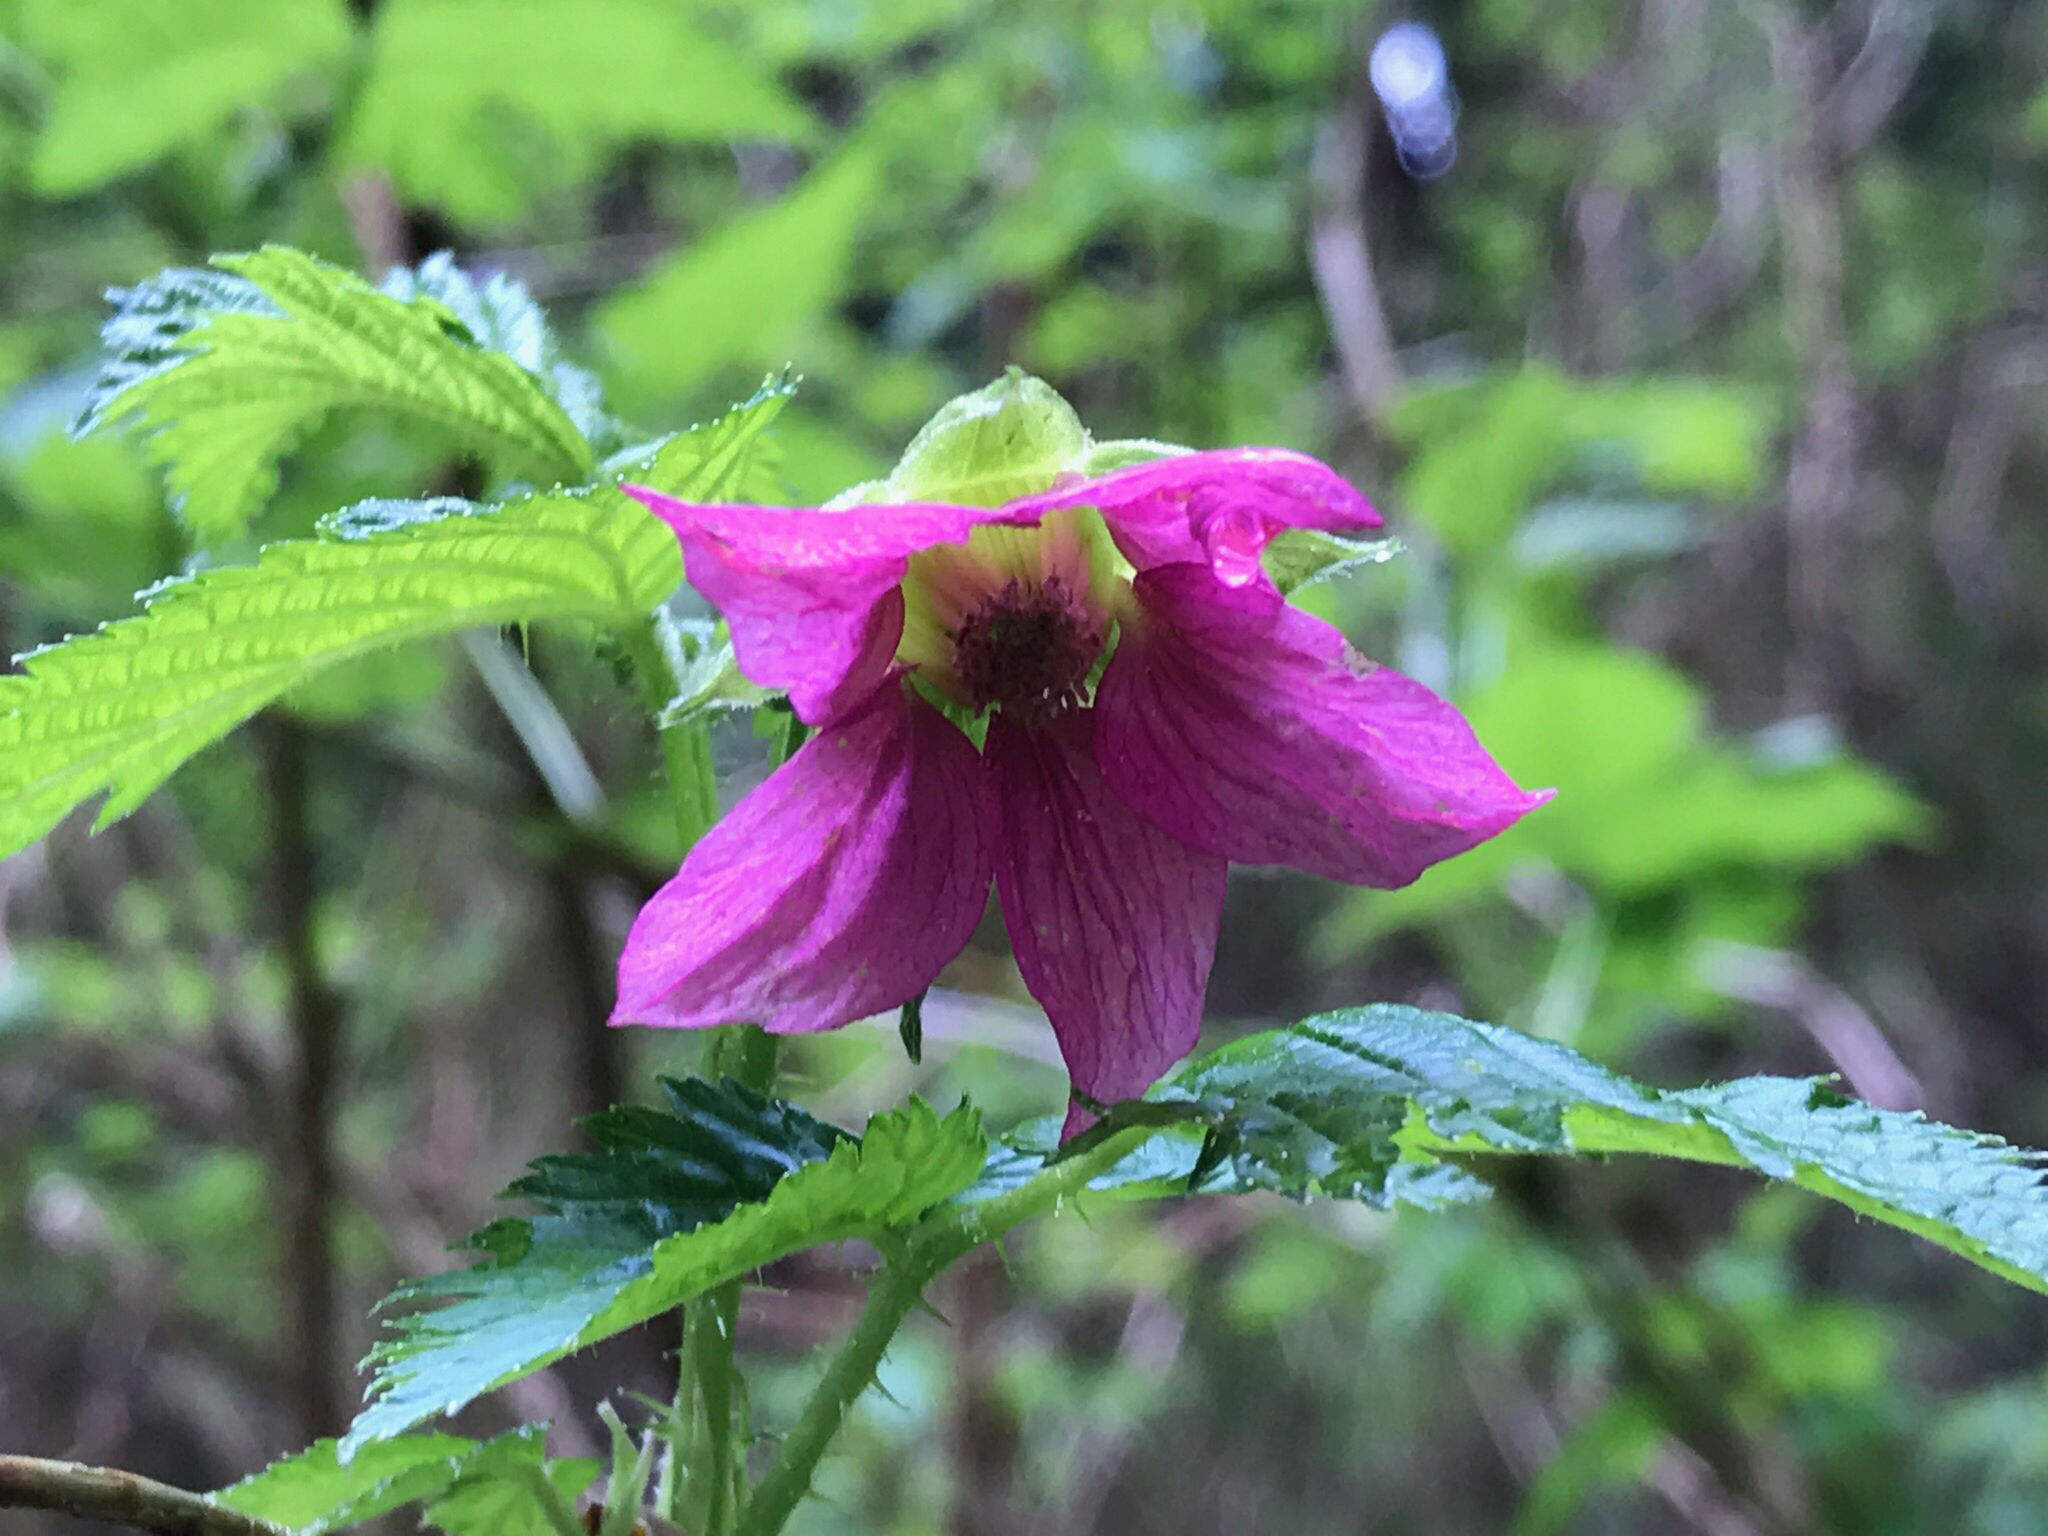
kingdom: Plantae
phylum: Tracheophyta
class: Magnoliopsida
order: Rosales
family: Rosaceae
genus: Rubus
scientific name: Rubus spectabilis
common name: Salmonberry
